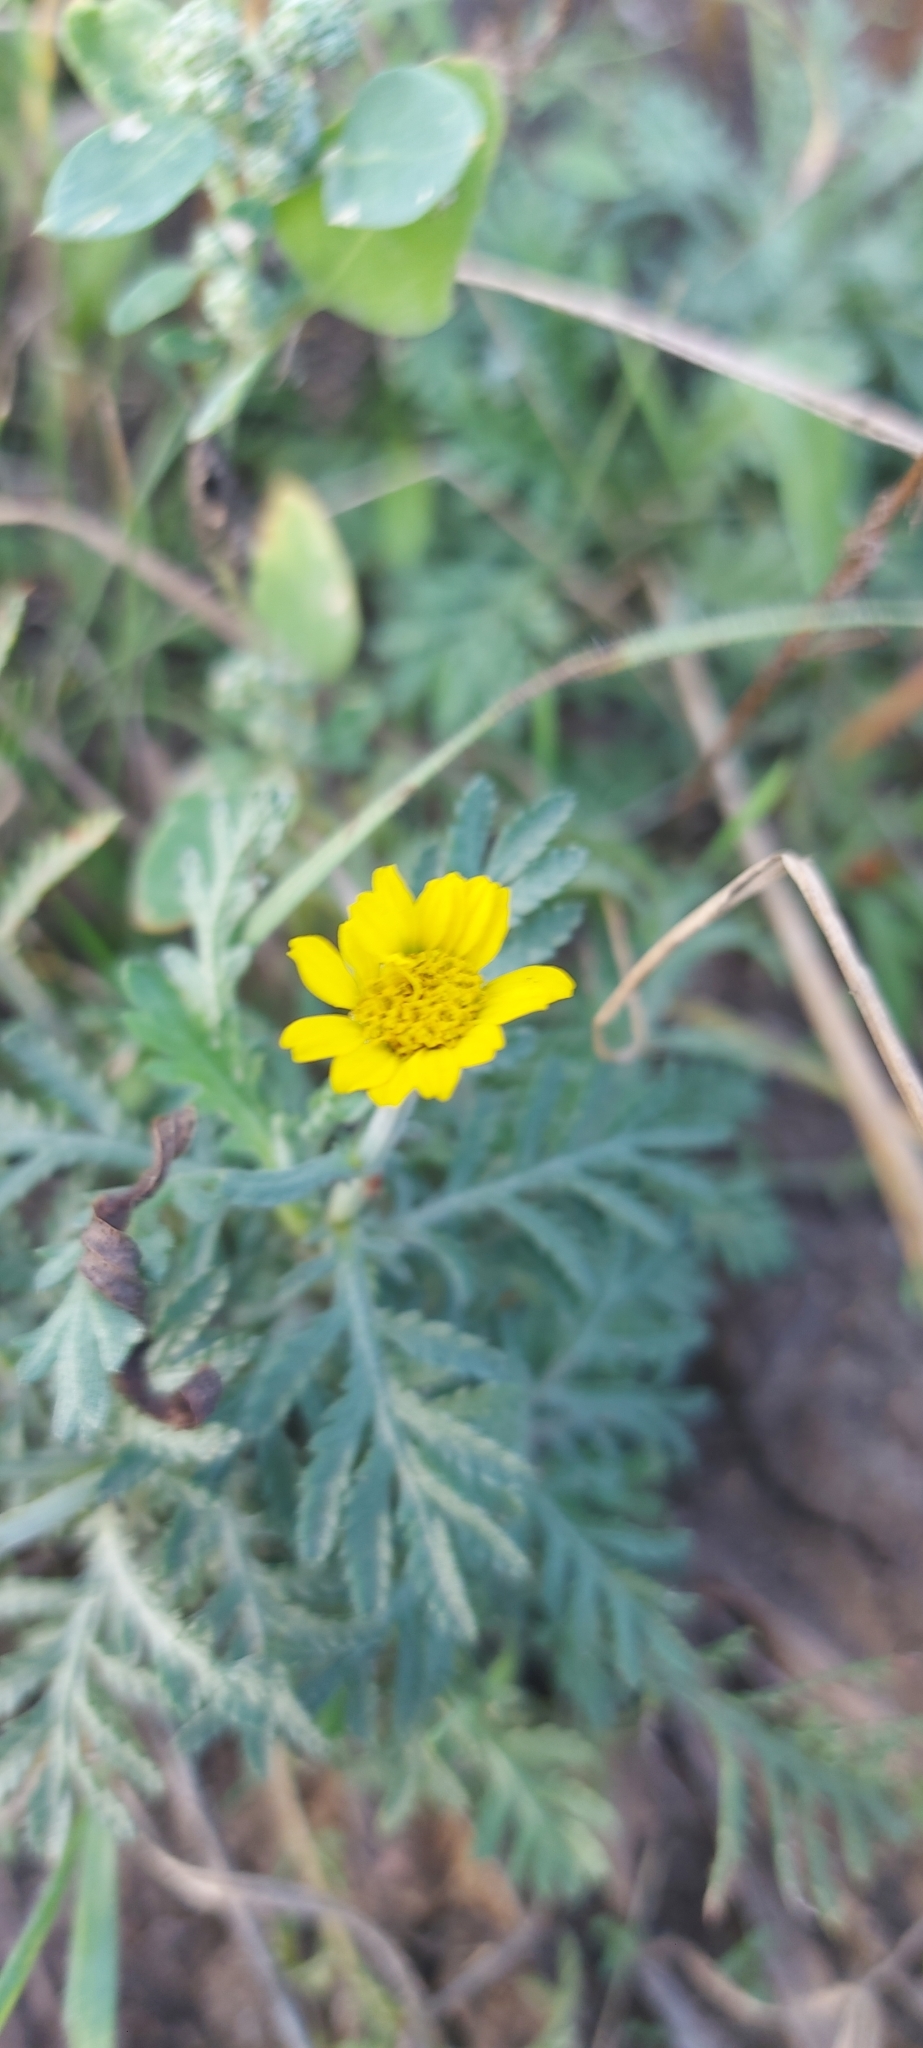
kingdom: Plantae
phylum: Tracheophyta
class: Magnoliopsida
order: Asterales
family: Asteraceae
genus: Cota
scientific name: Cota tinctoria
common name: Golden chamomile
